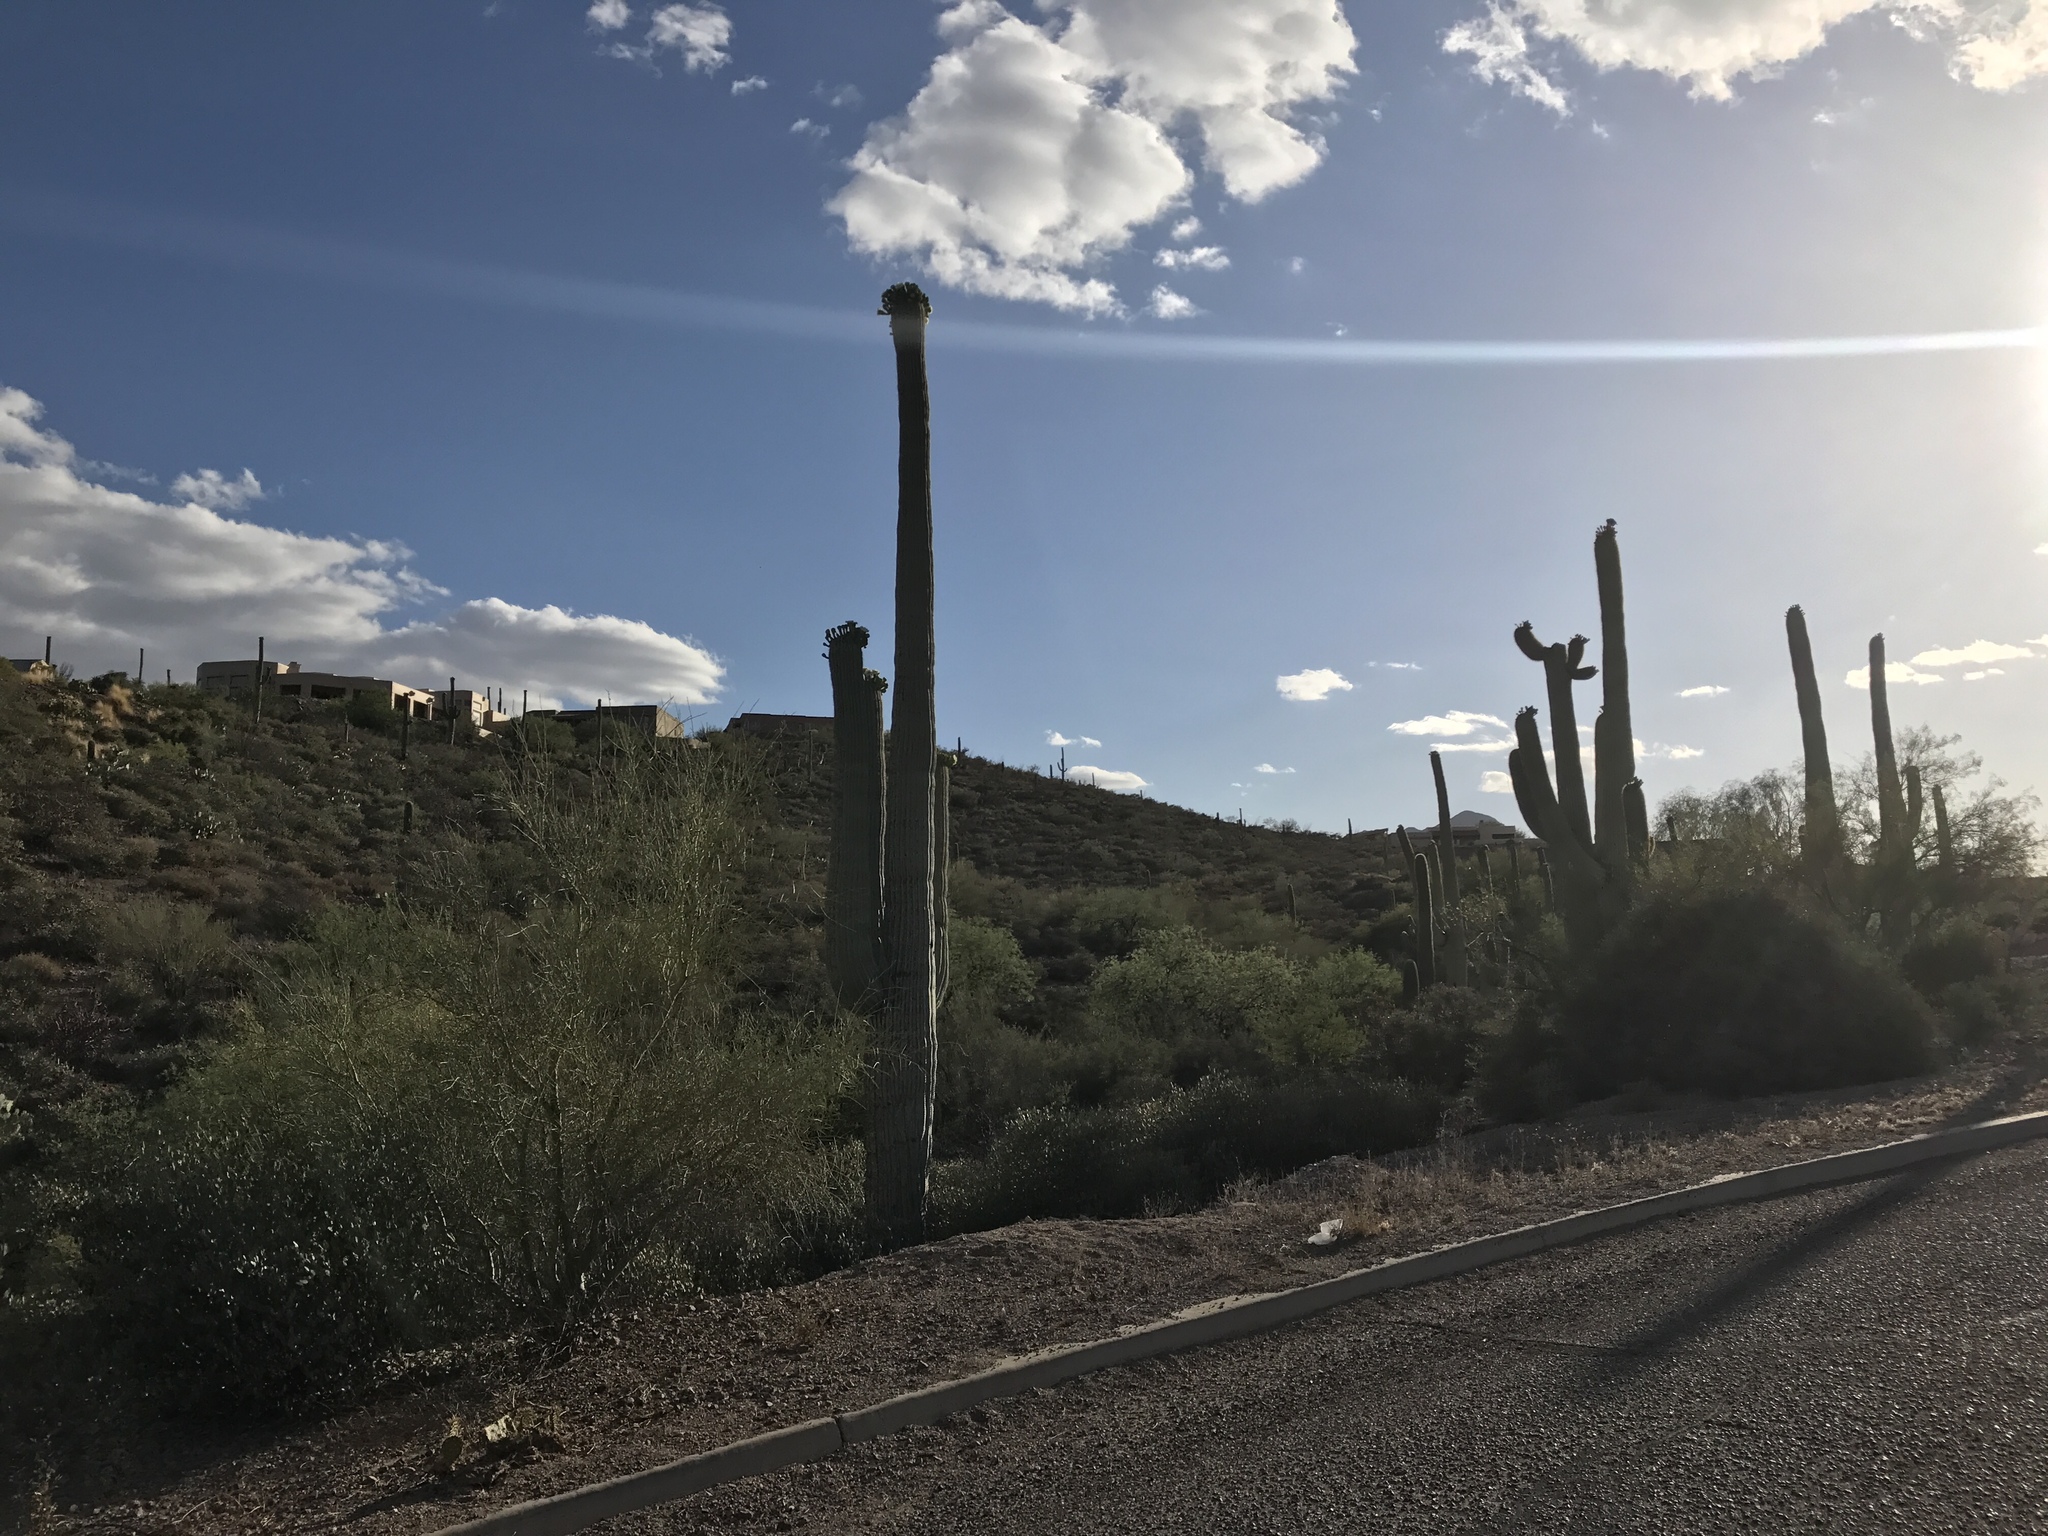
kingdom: Plantae
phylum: Tracheophyta
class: Magnoliopsida
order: Caryophyllales
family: Cactaceae
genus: Carnegiea
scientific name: Carnegiea gigantea
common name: Saguaro
